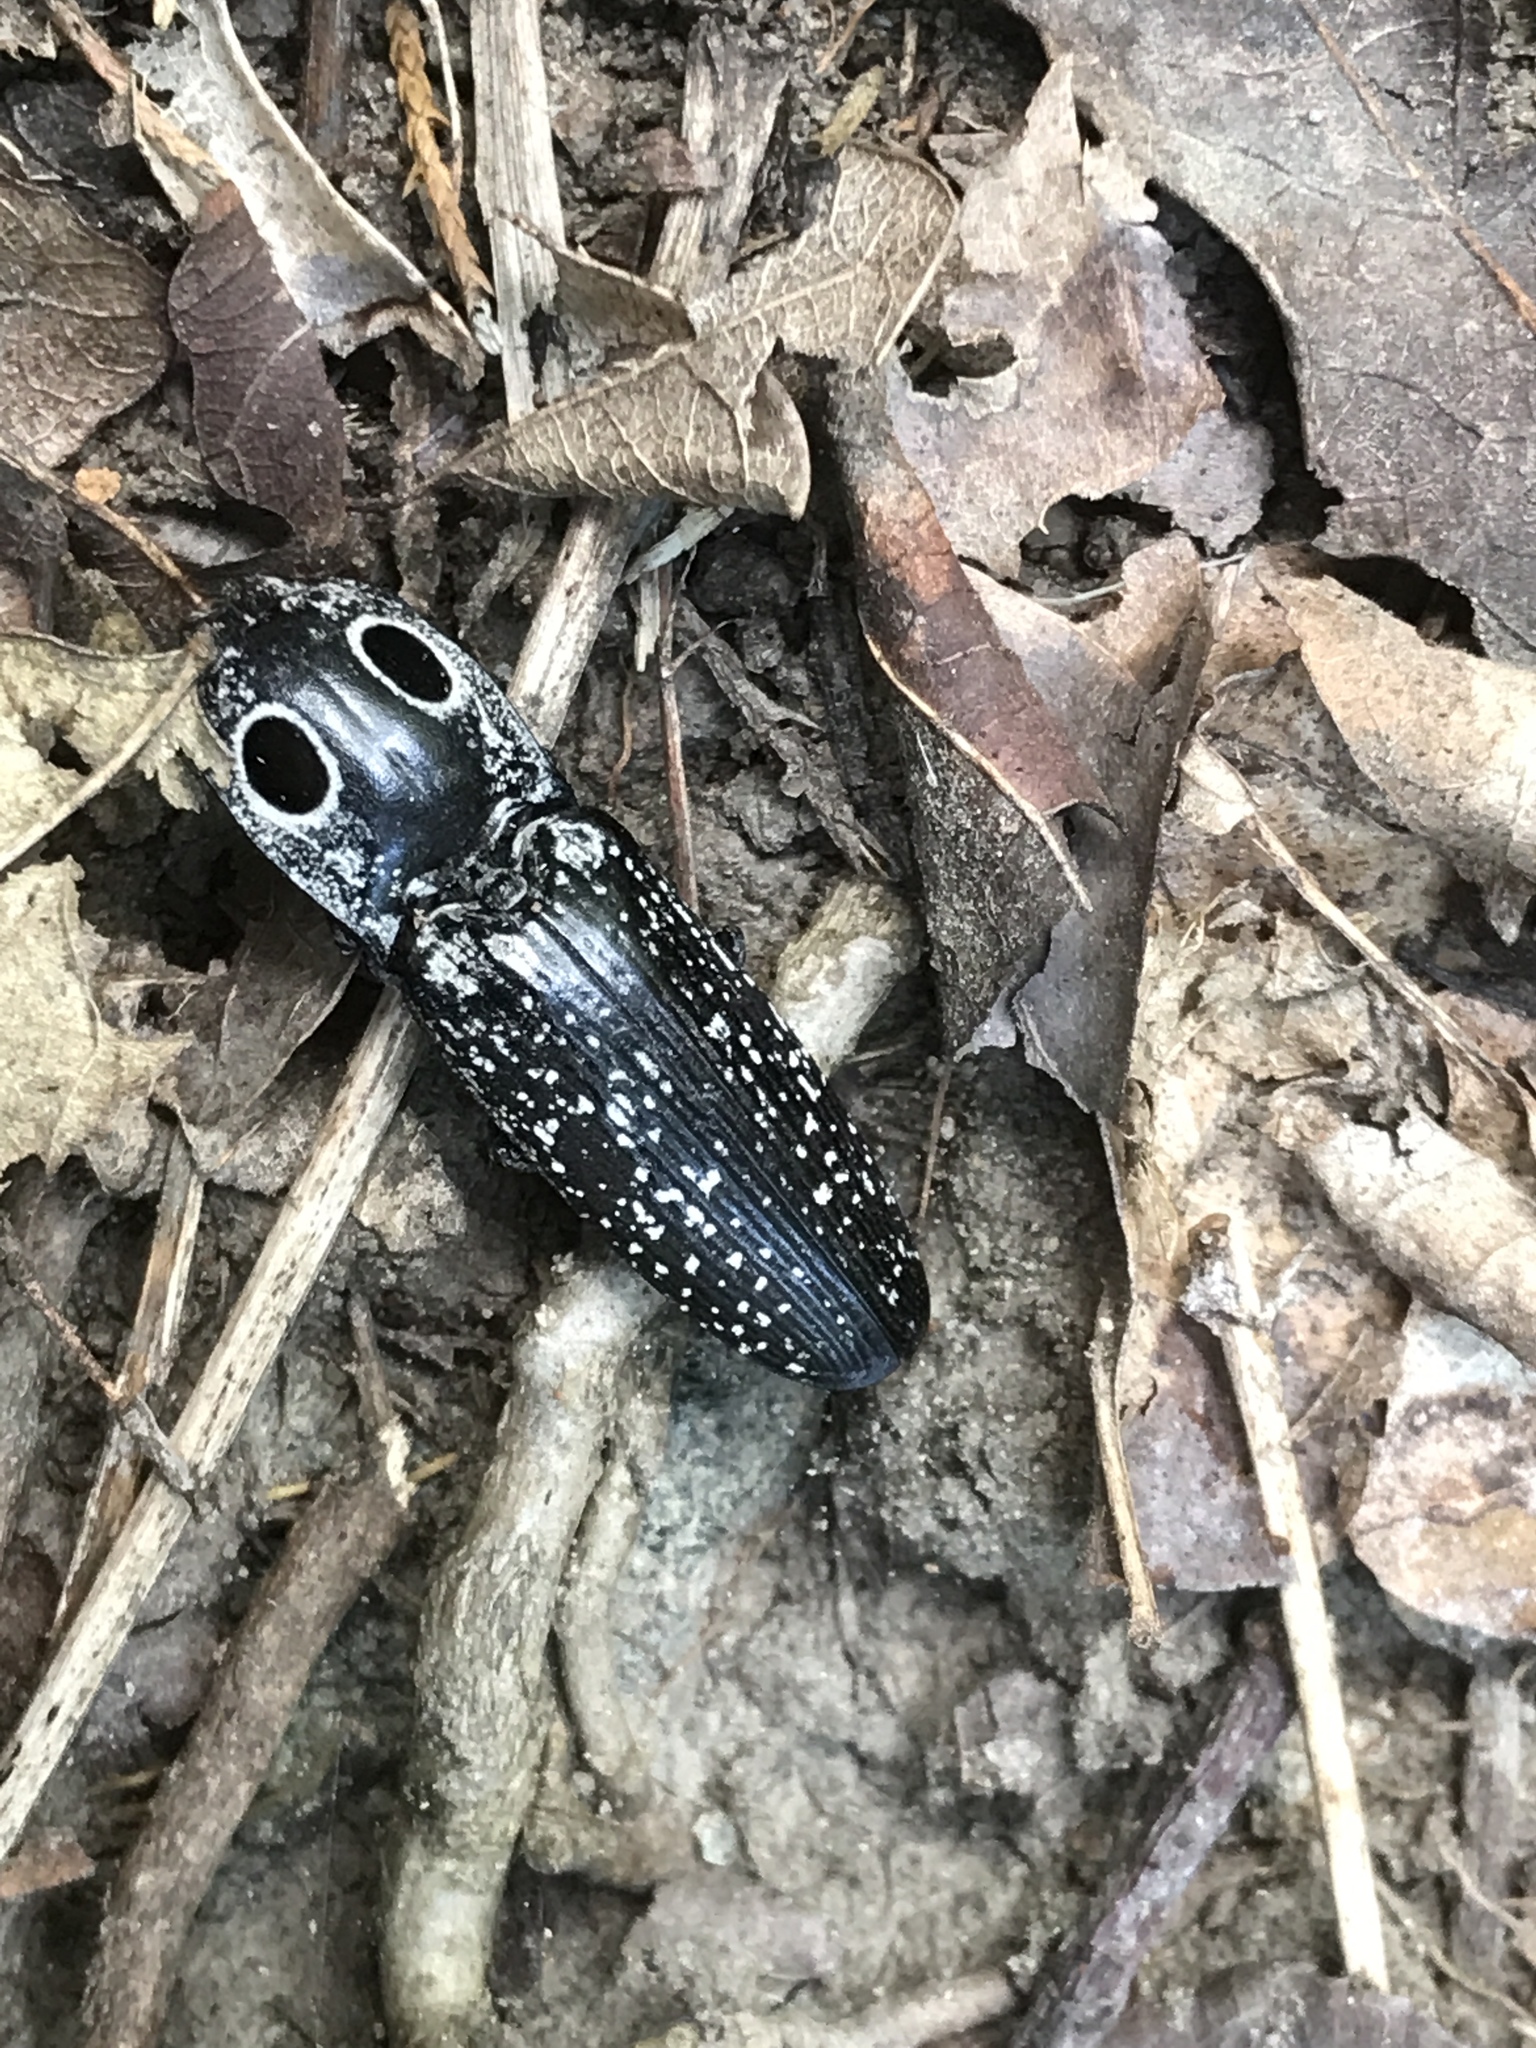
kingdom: Animalia
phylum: Arthropoda
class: Insecta
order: Coleoptera
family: Elateridae
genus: Alaus
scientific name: Alaus oculatus
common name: Eastern eyed click beetle
